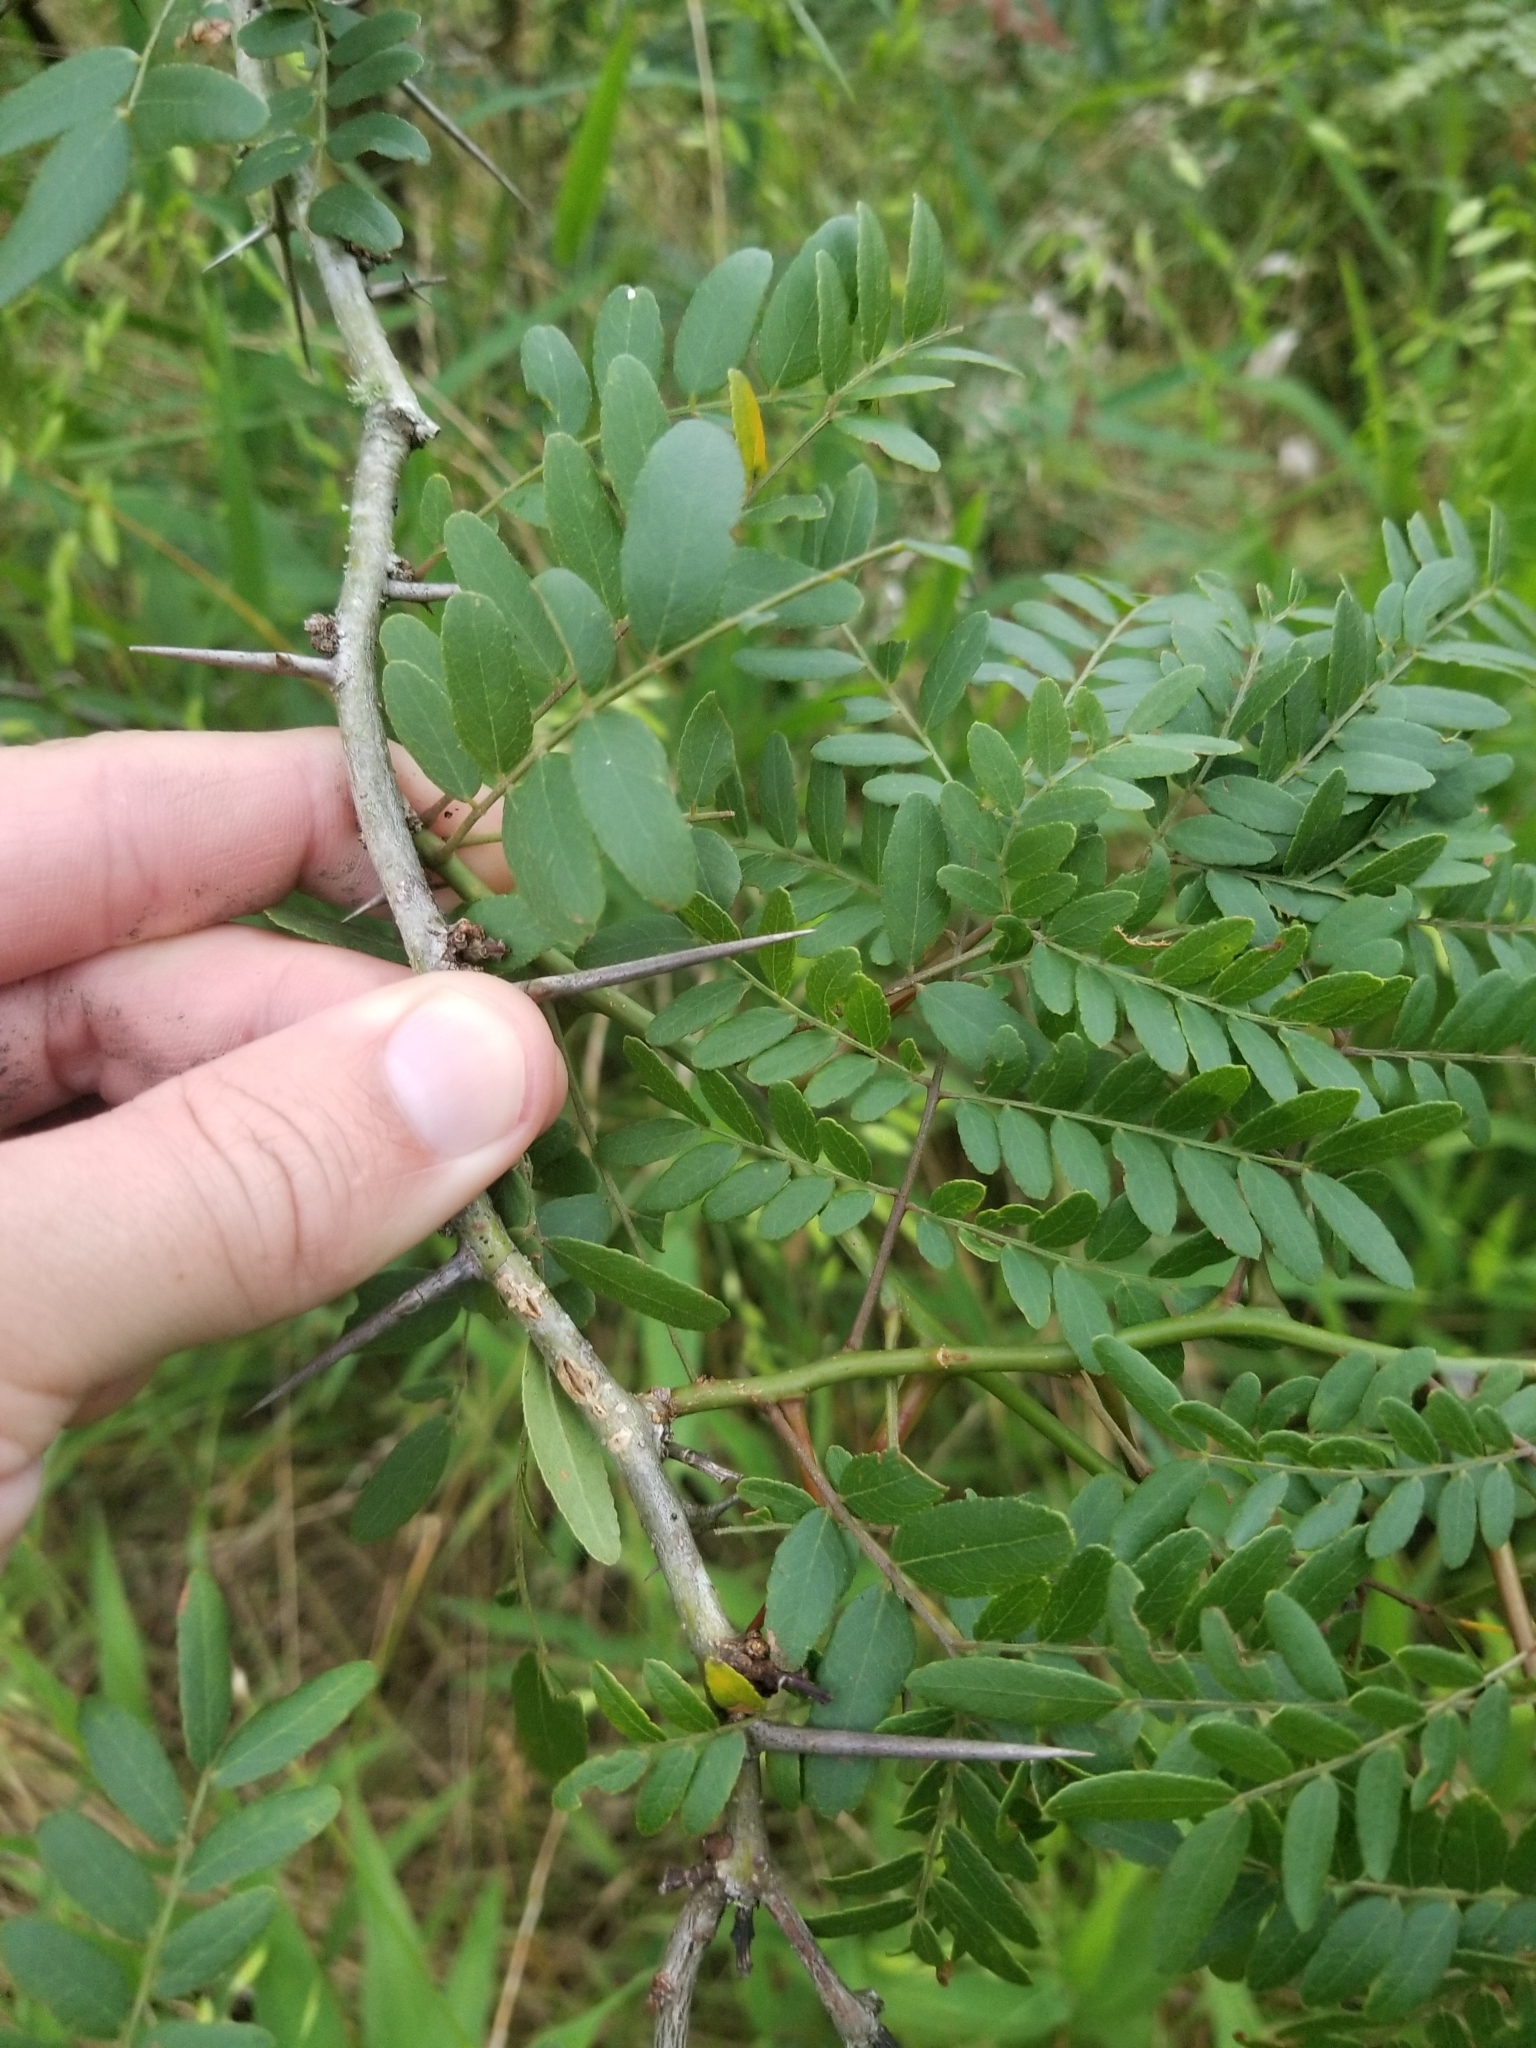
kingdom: Plantae
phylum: Tracheophyta
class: Magnoliopsida
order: Fabales
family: Fabaceae
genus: Gleditsia
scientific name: Gleditsia triacanthos
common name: Common honeylocust
